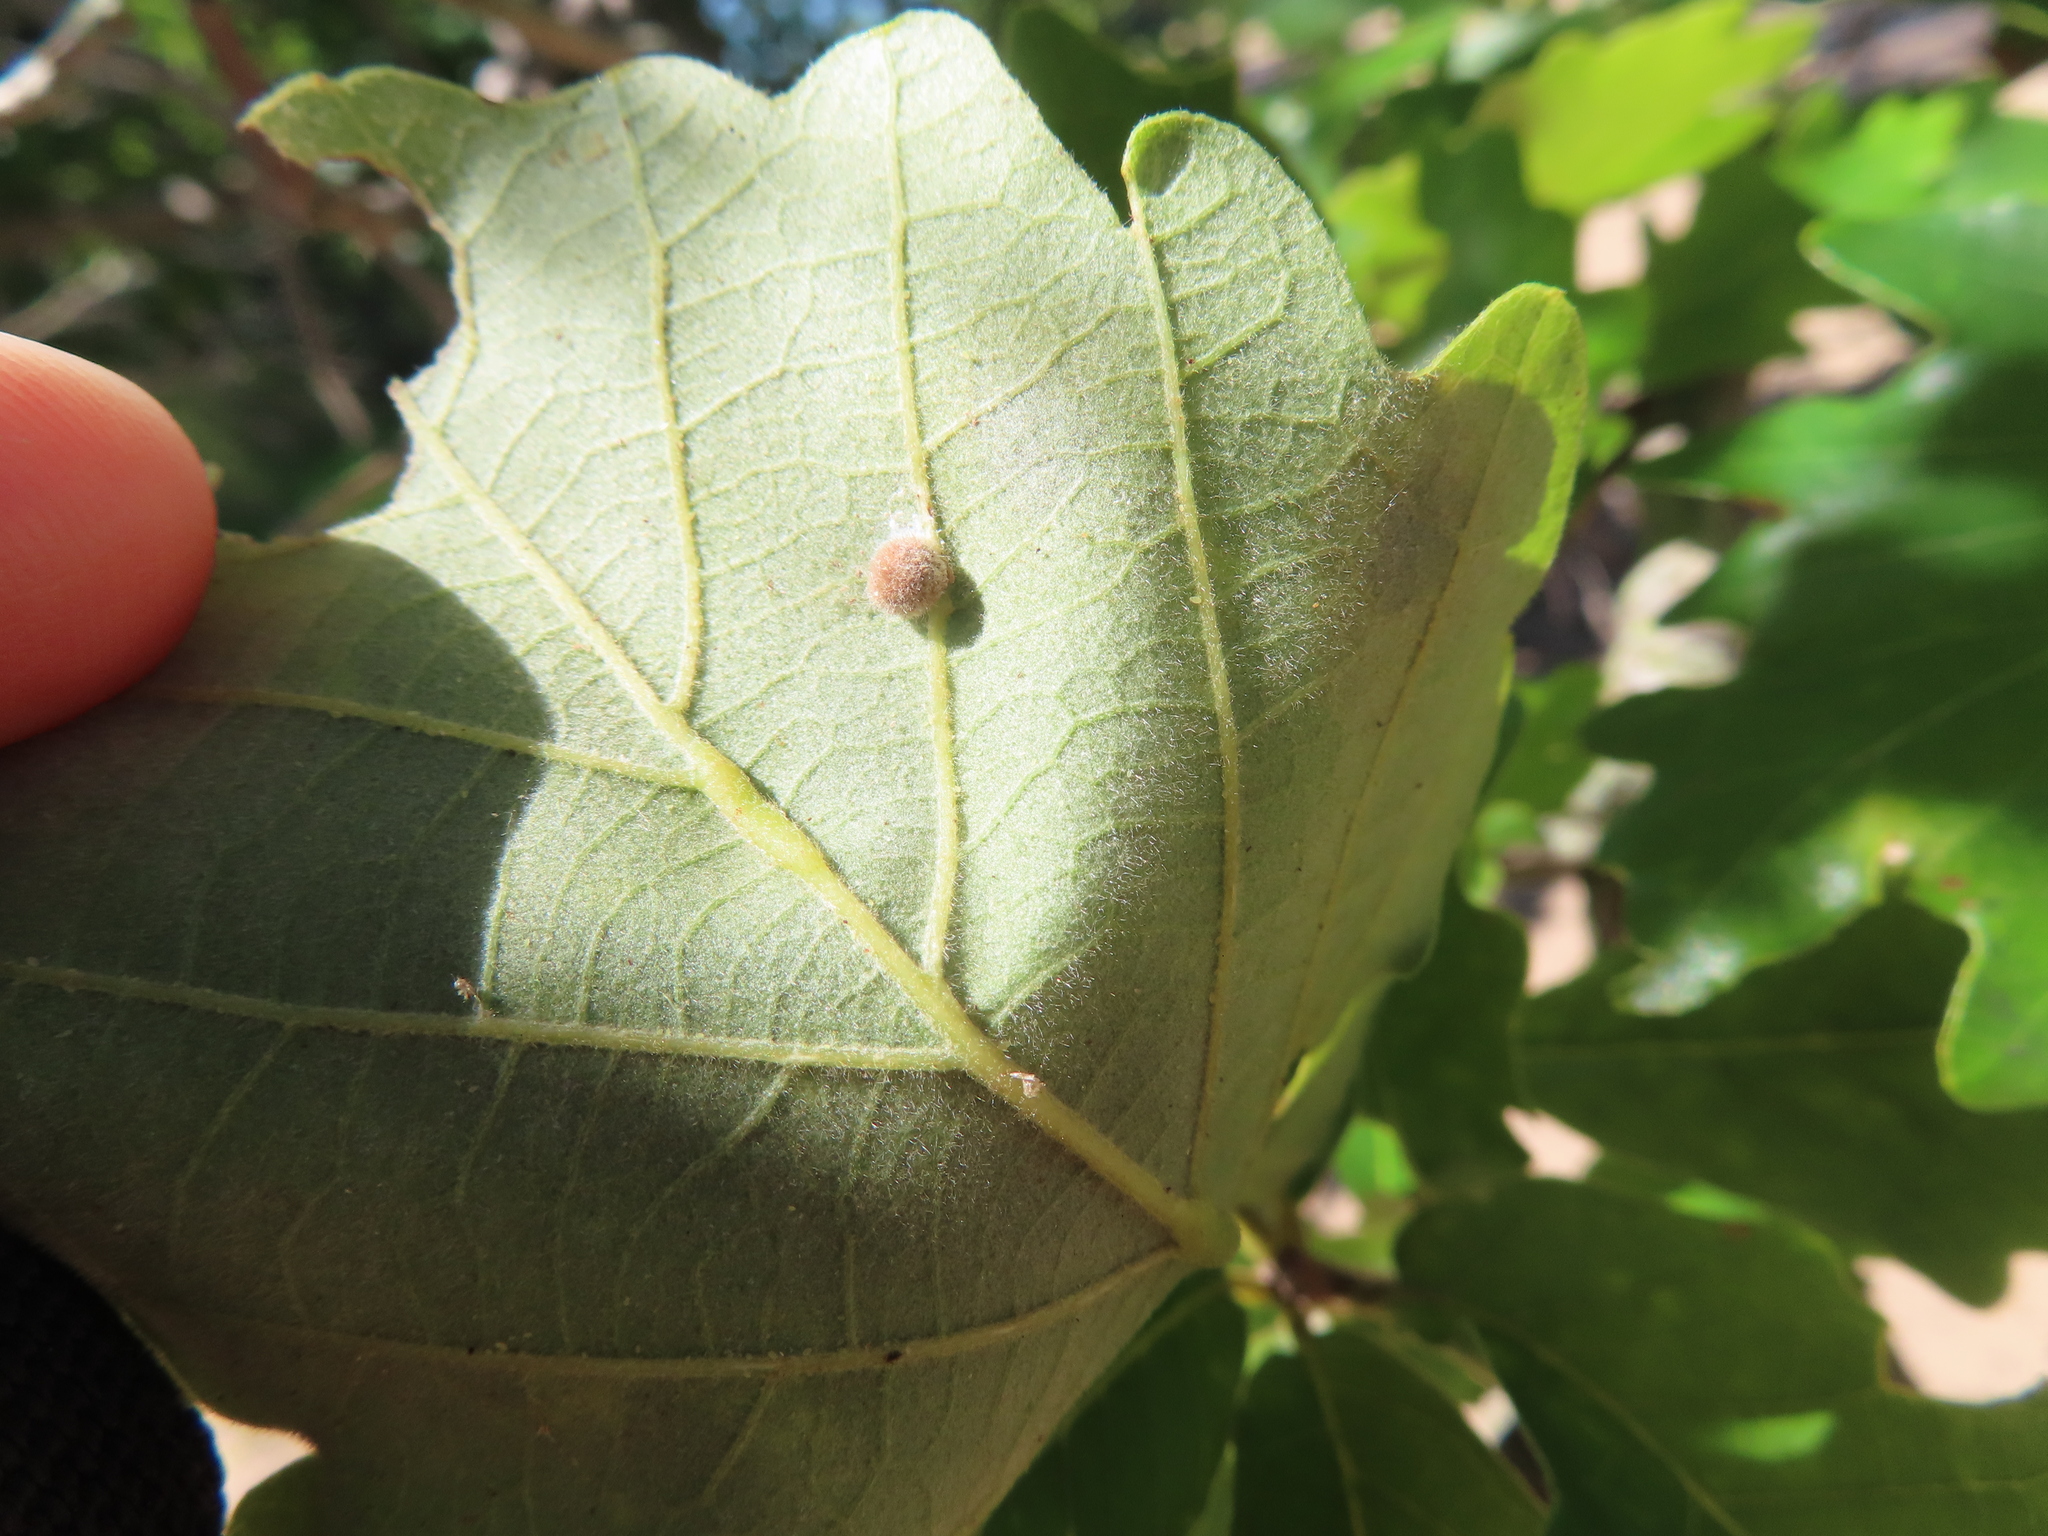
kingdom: Animalia
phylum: Arthropoda
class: Insecta
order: Hymenoptera
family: Cynipidae
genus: Philonix
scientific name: Philonix fulvicollis
